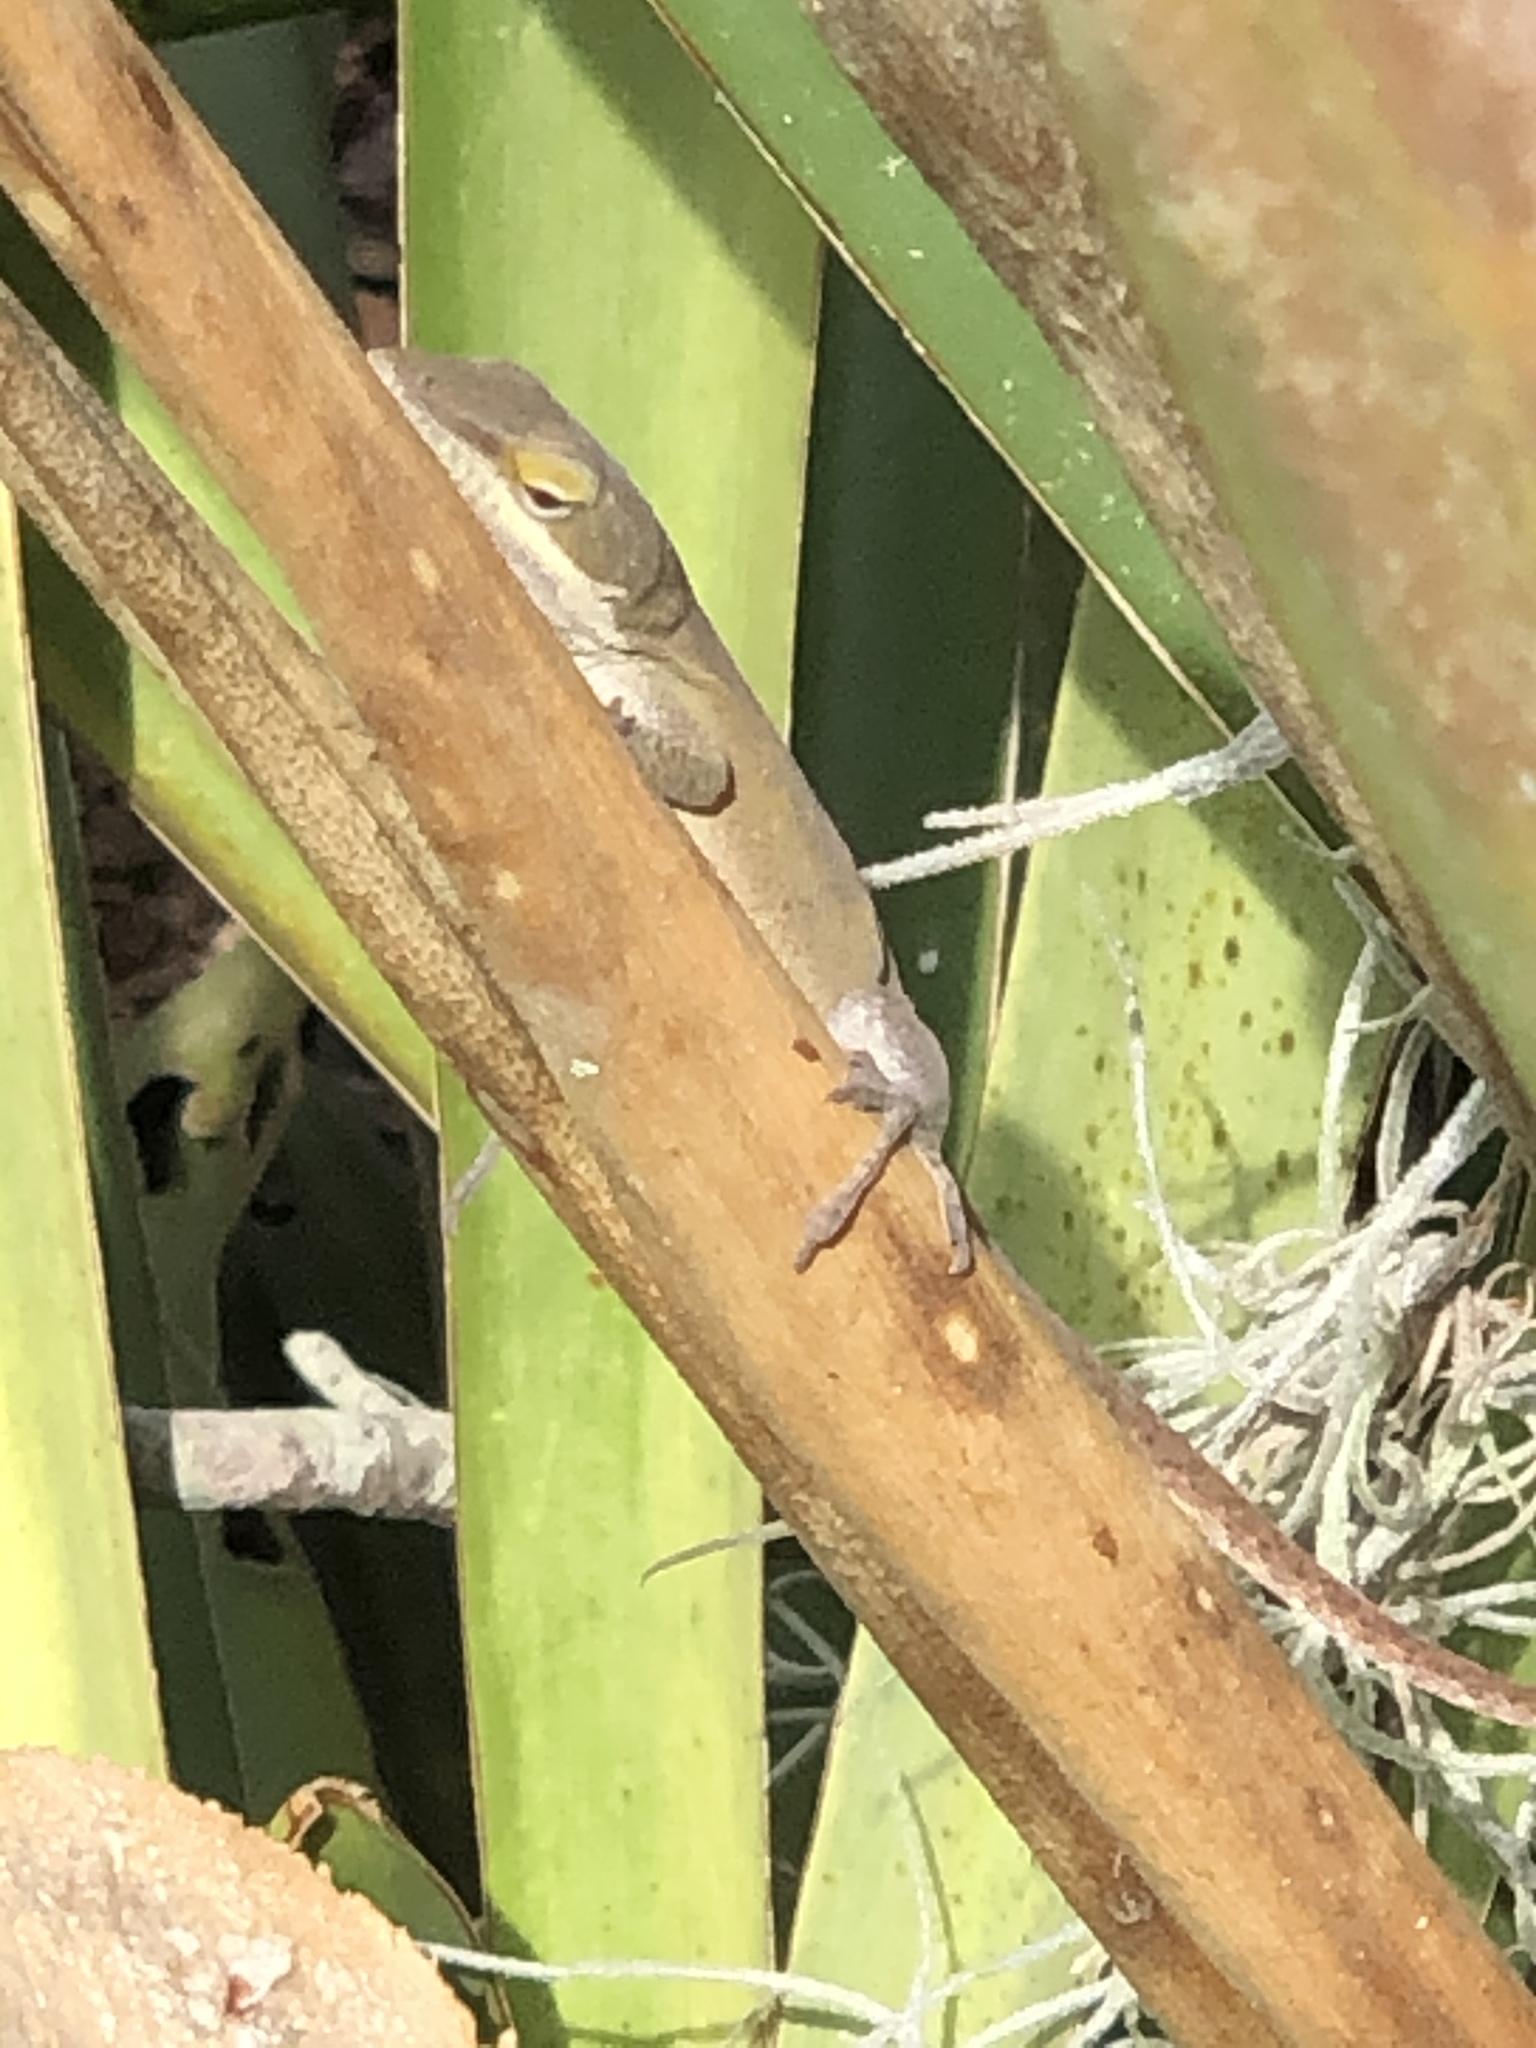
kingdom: Animalia
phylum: Chordata
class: Squamata
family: Dactyloidae
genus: Anolis
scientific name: Anolis carolinensis
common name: Green anole
